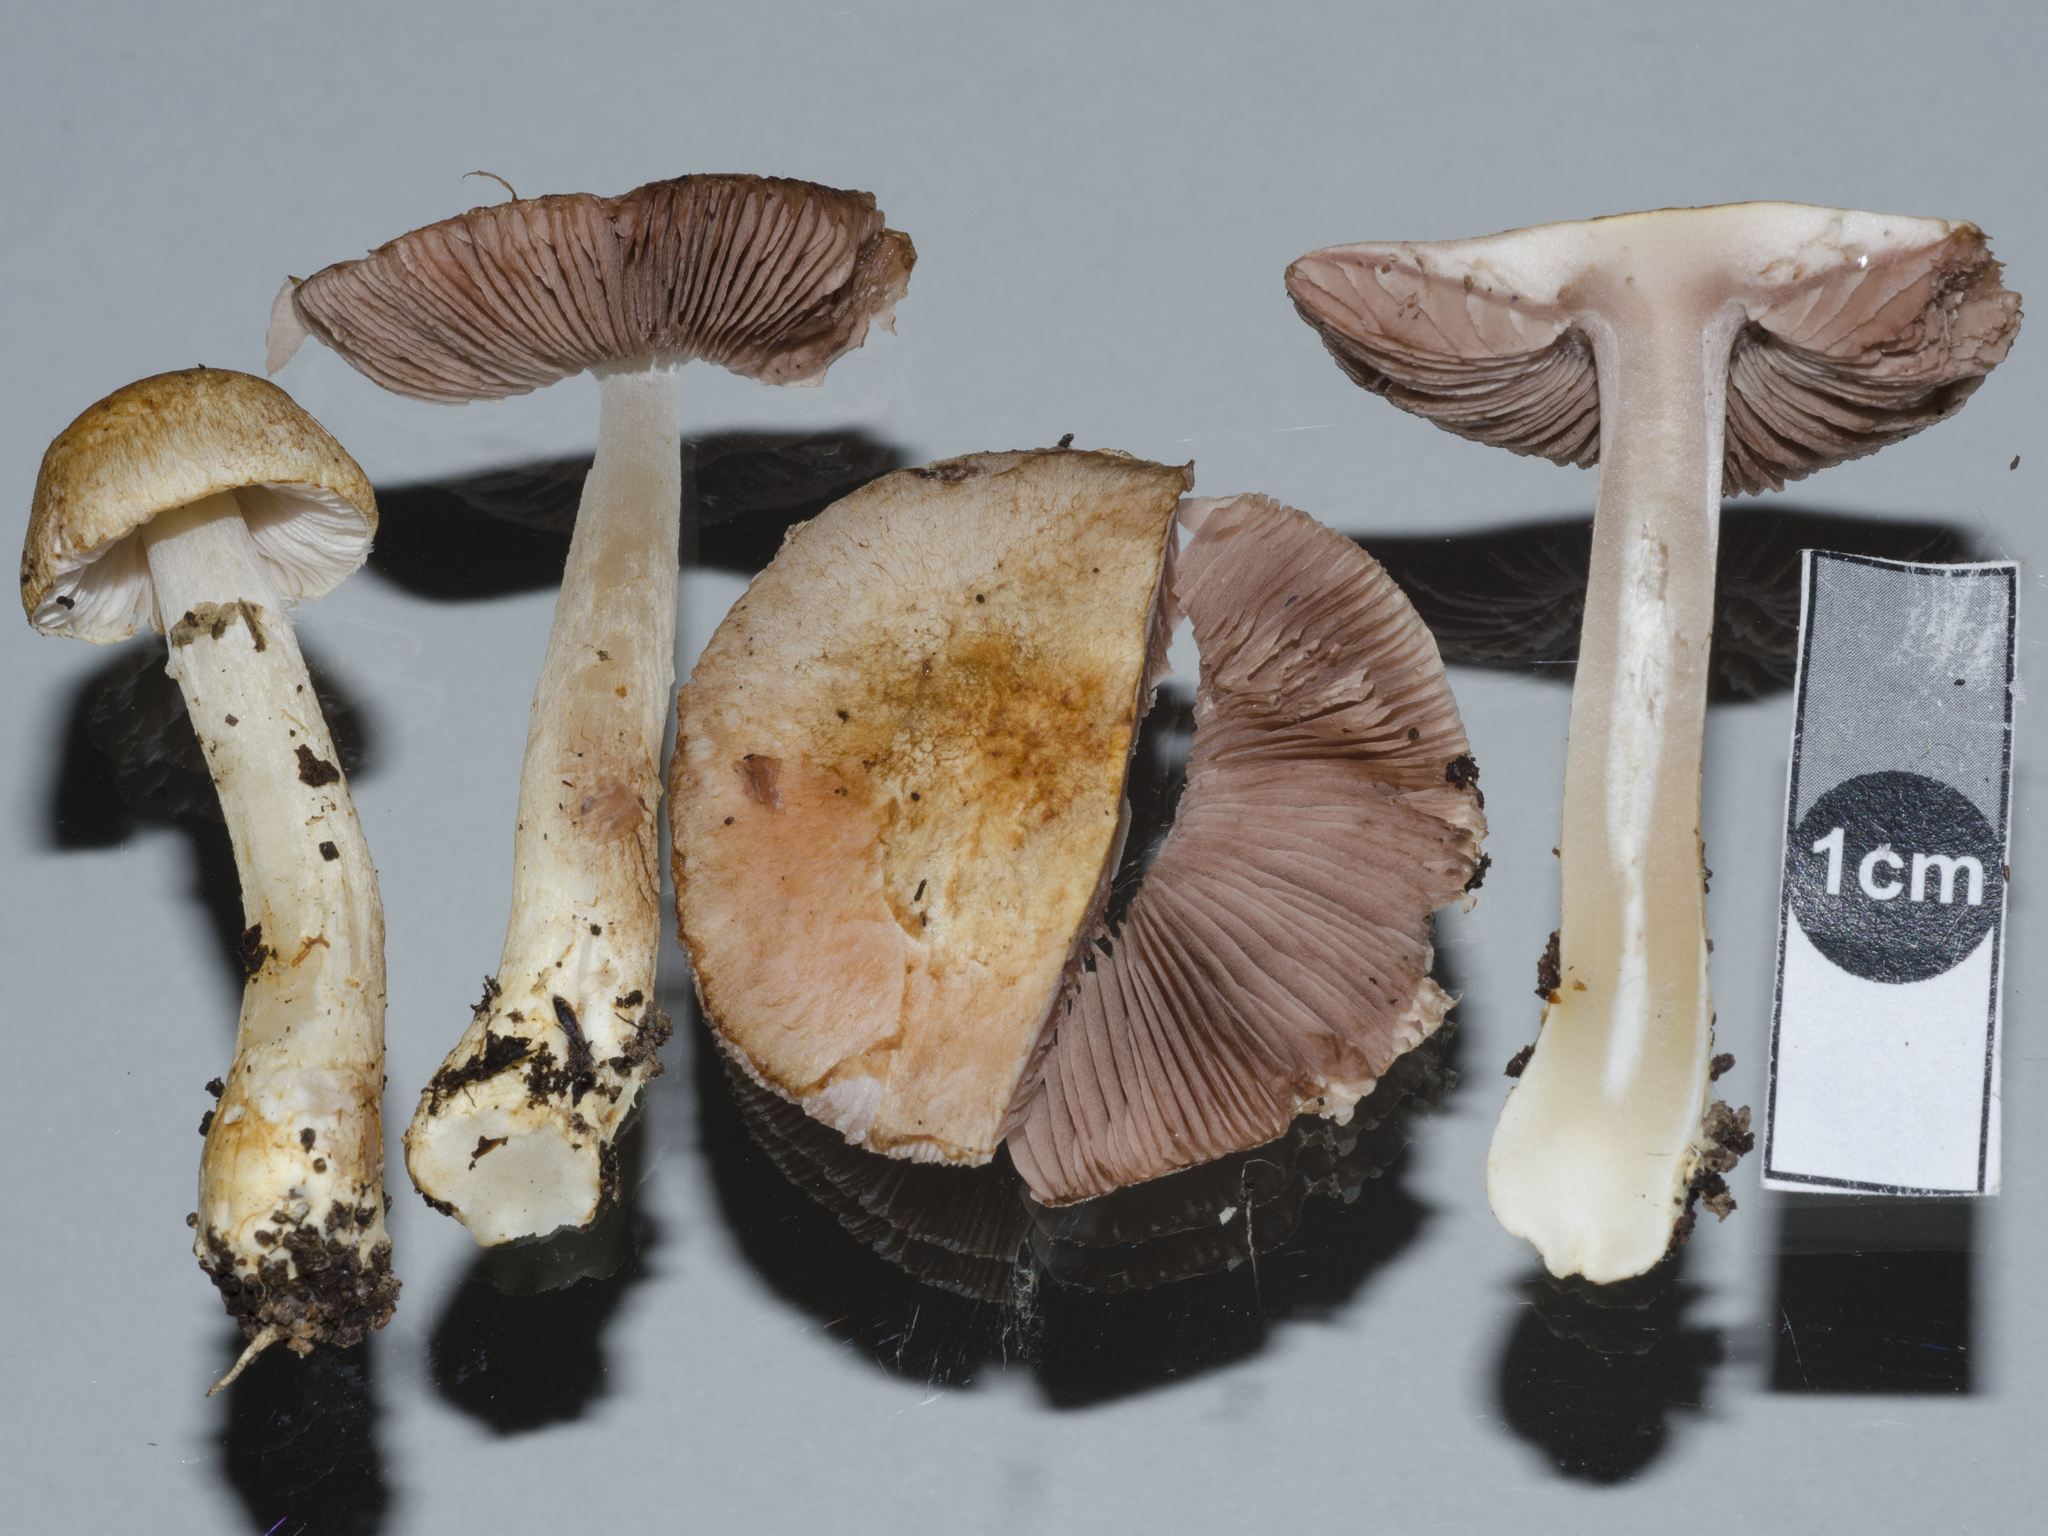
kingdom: Fungi
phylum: Basidiomycota
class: Agaricomycetes
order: Agaricales
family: Agaricaceae
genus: Agaricus
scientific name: Agaricus
